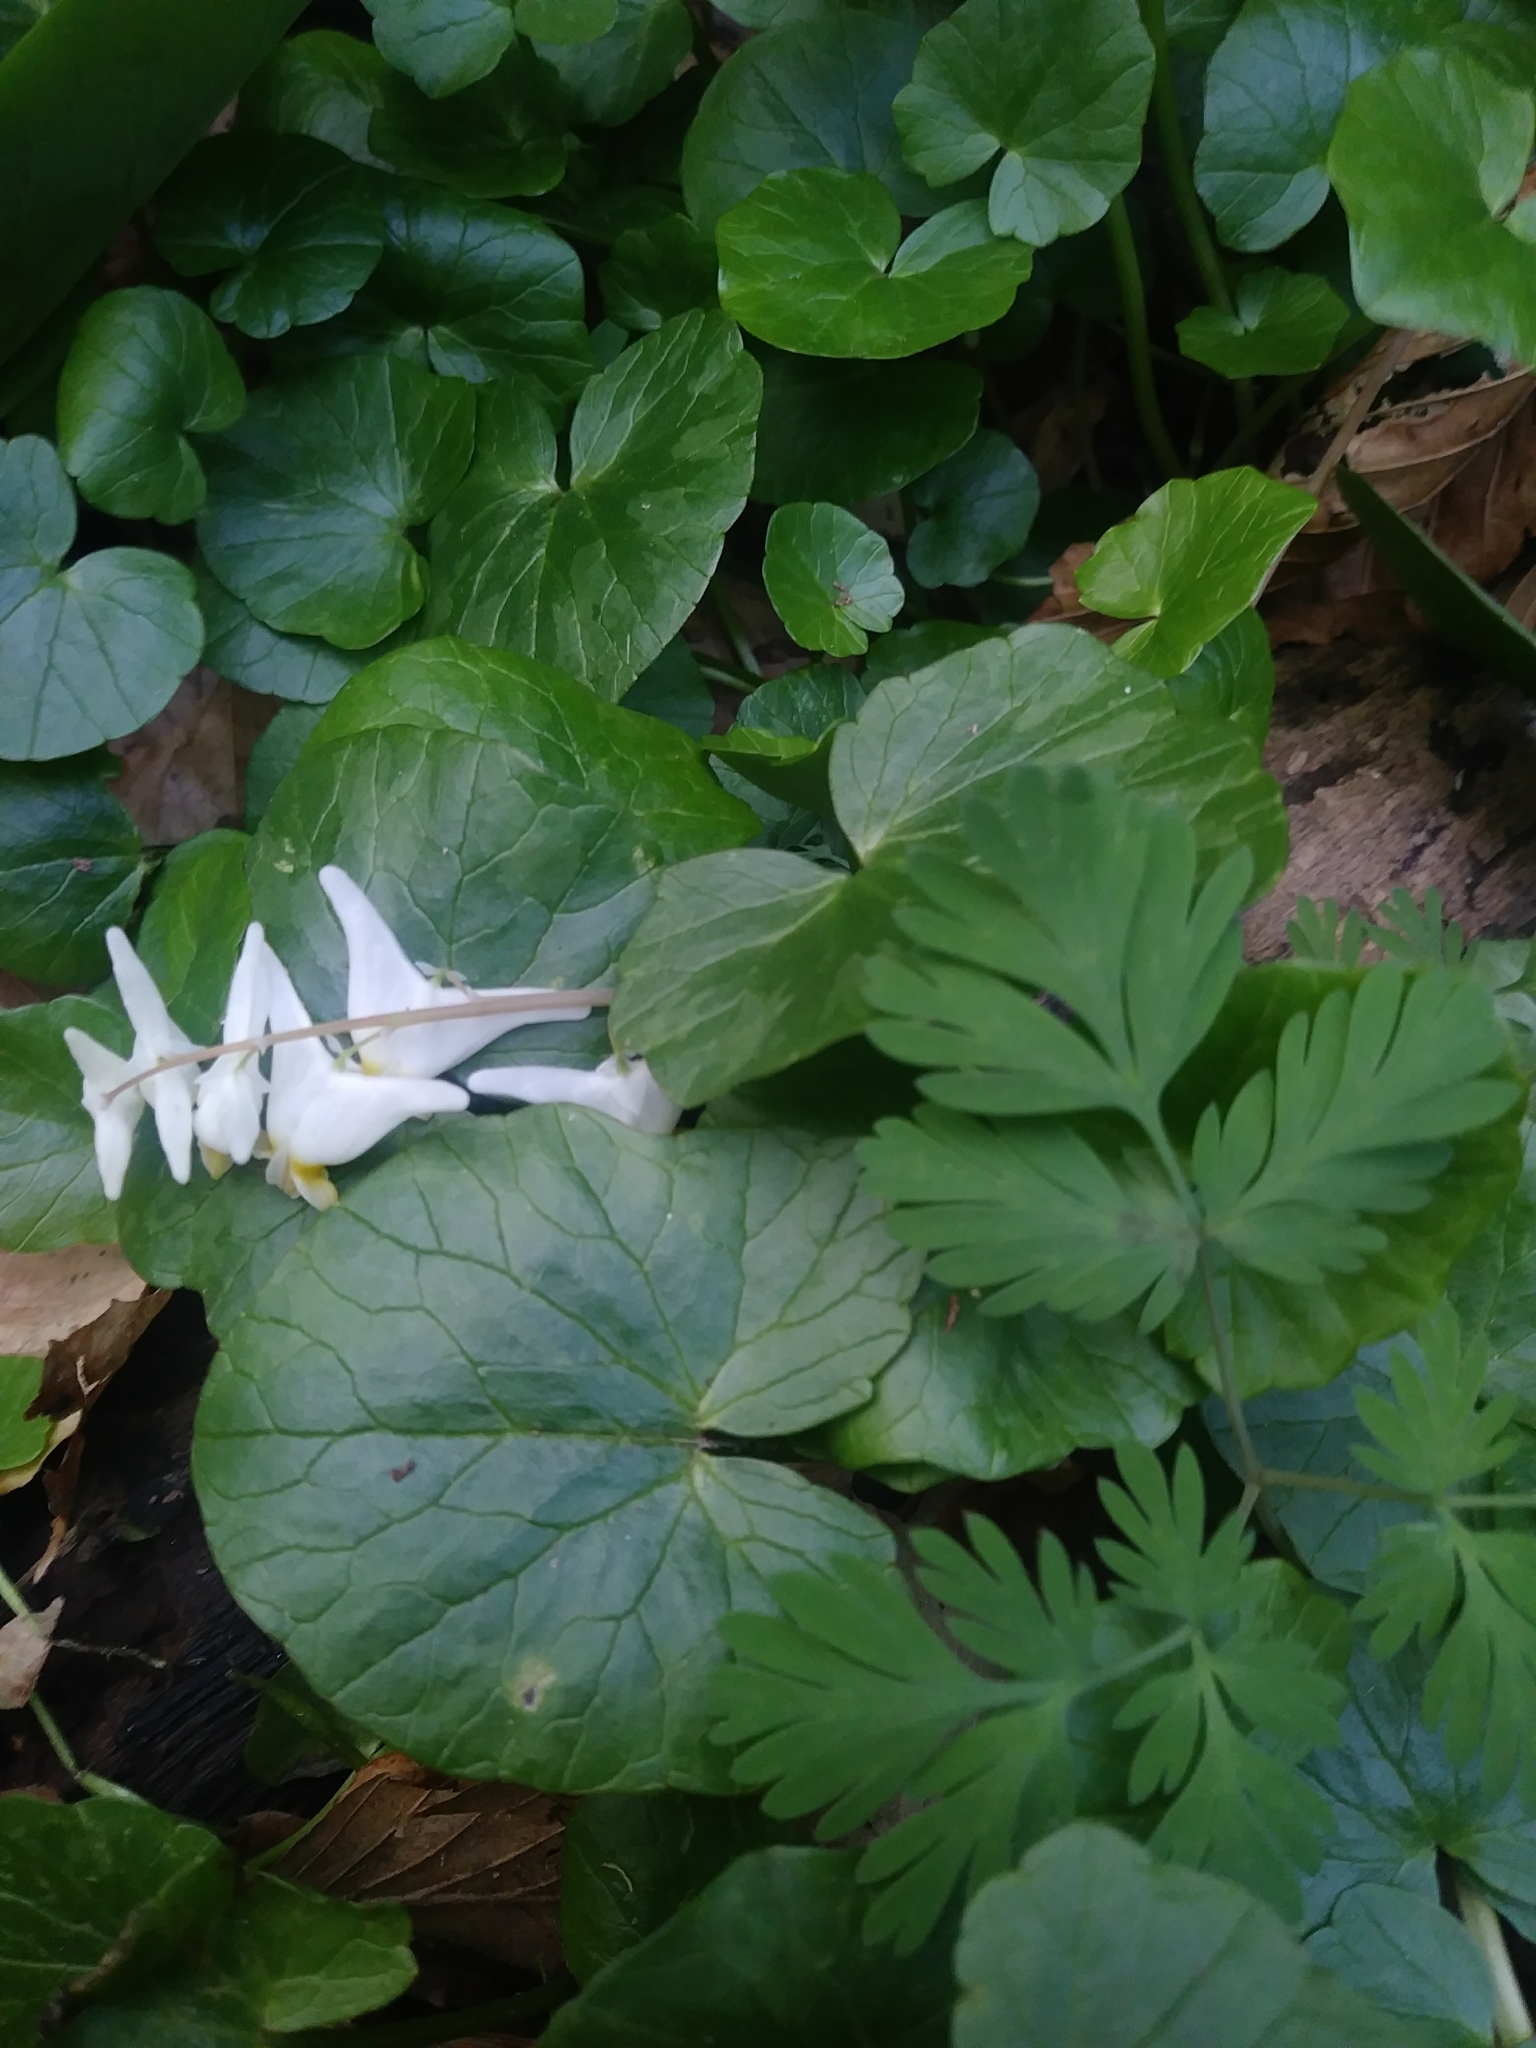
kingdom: Plantae
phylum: Tracheophyta
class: Magnoliopsida
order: Ranunculales
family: Papaveraceae
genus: Dicentra
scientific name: Dicentra cucullaria
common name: Dutchman's breeches
